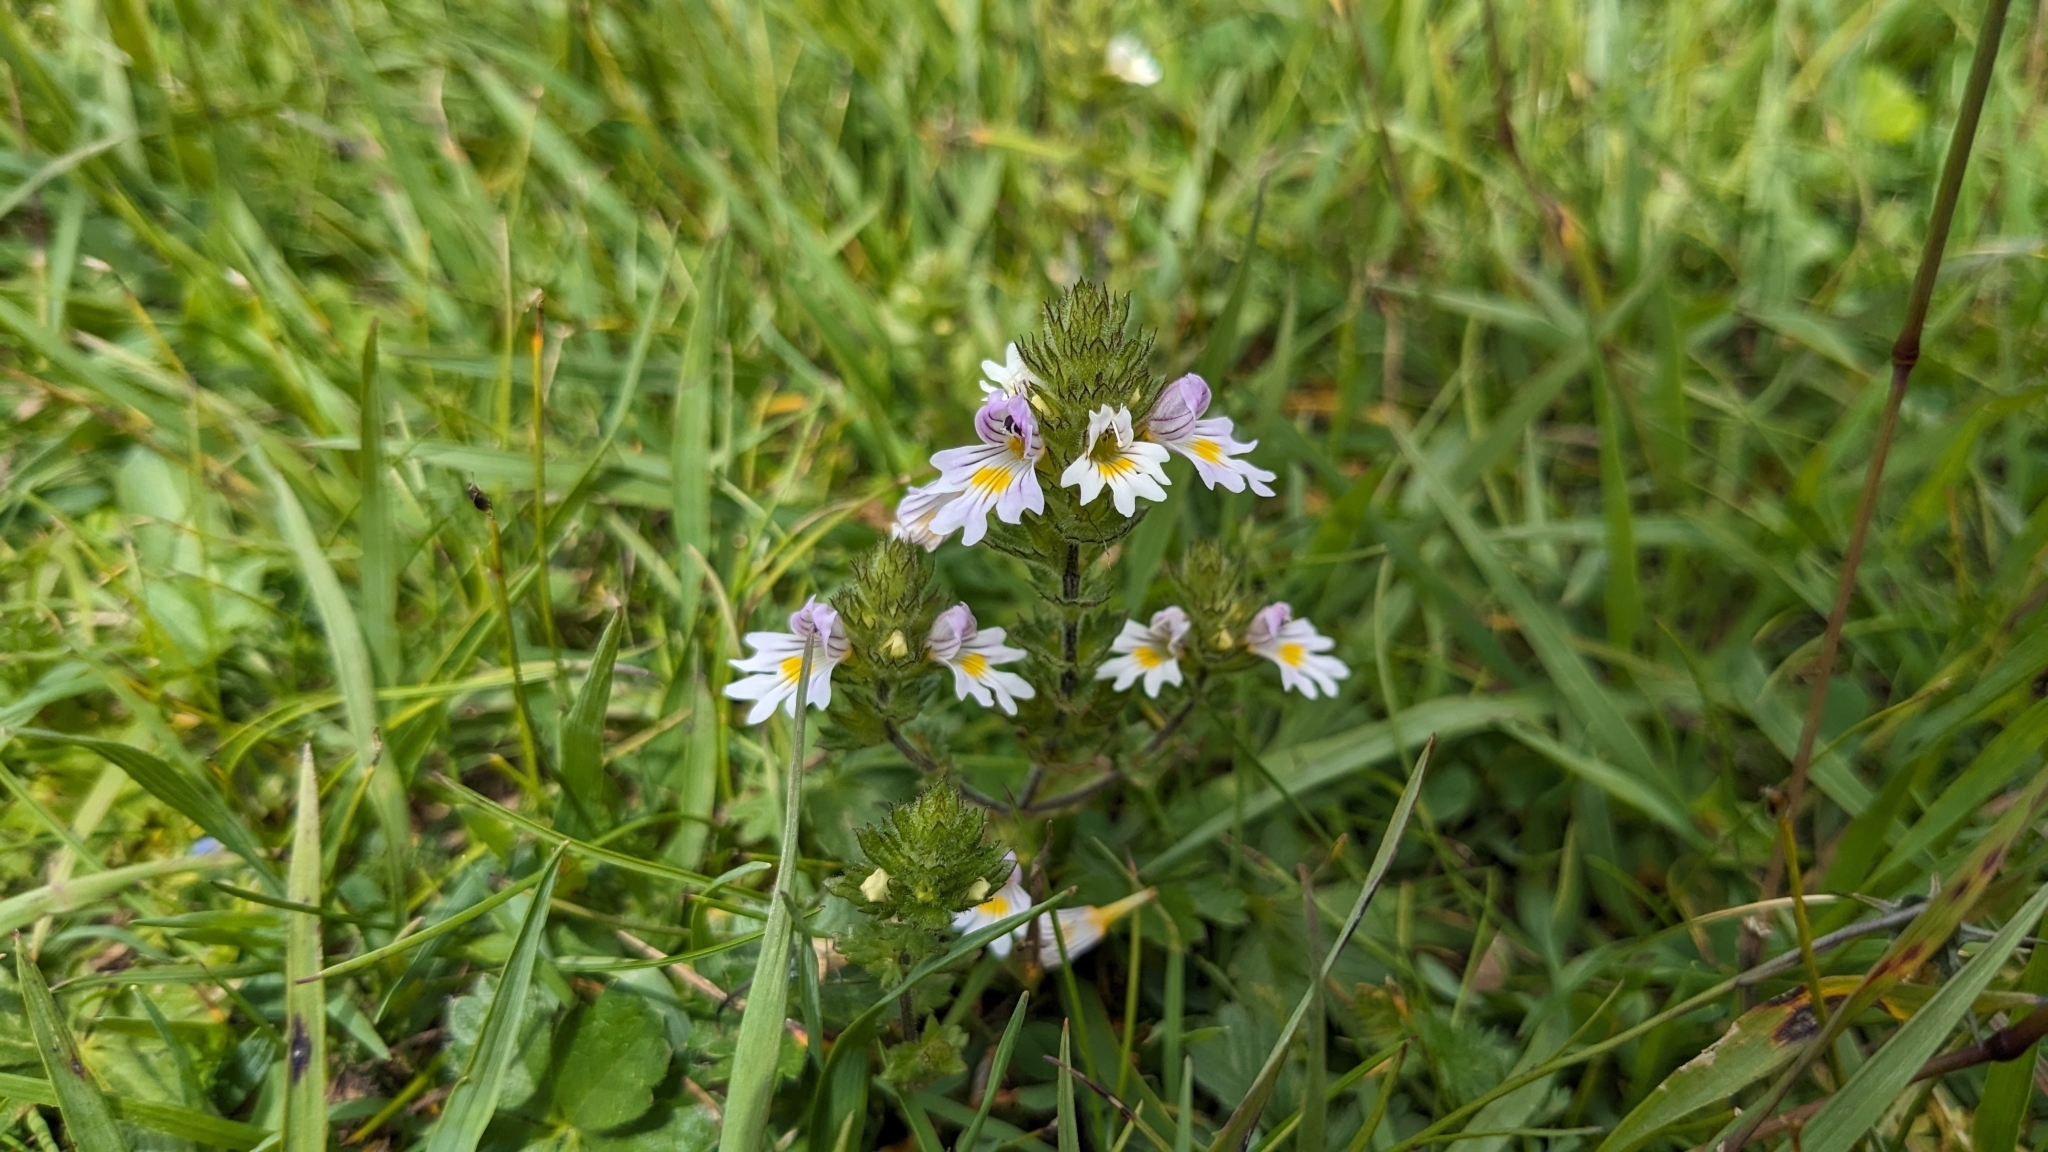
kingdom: Plantae
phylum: Tracheophyta
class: Magnoliopsida
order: Lamiales
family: Orobanchaceae
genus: Euphrasia
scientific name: Euphrasia officinalis
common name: Eyebright
